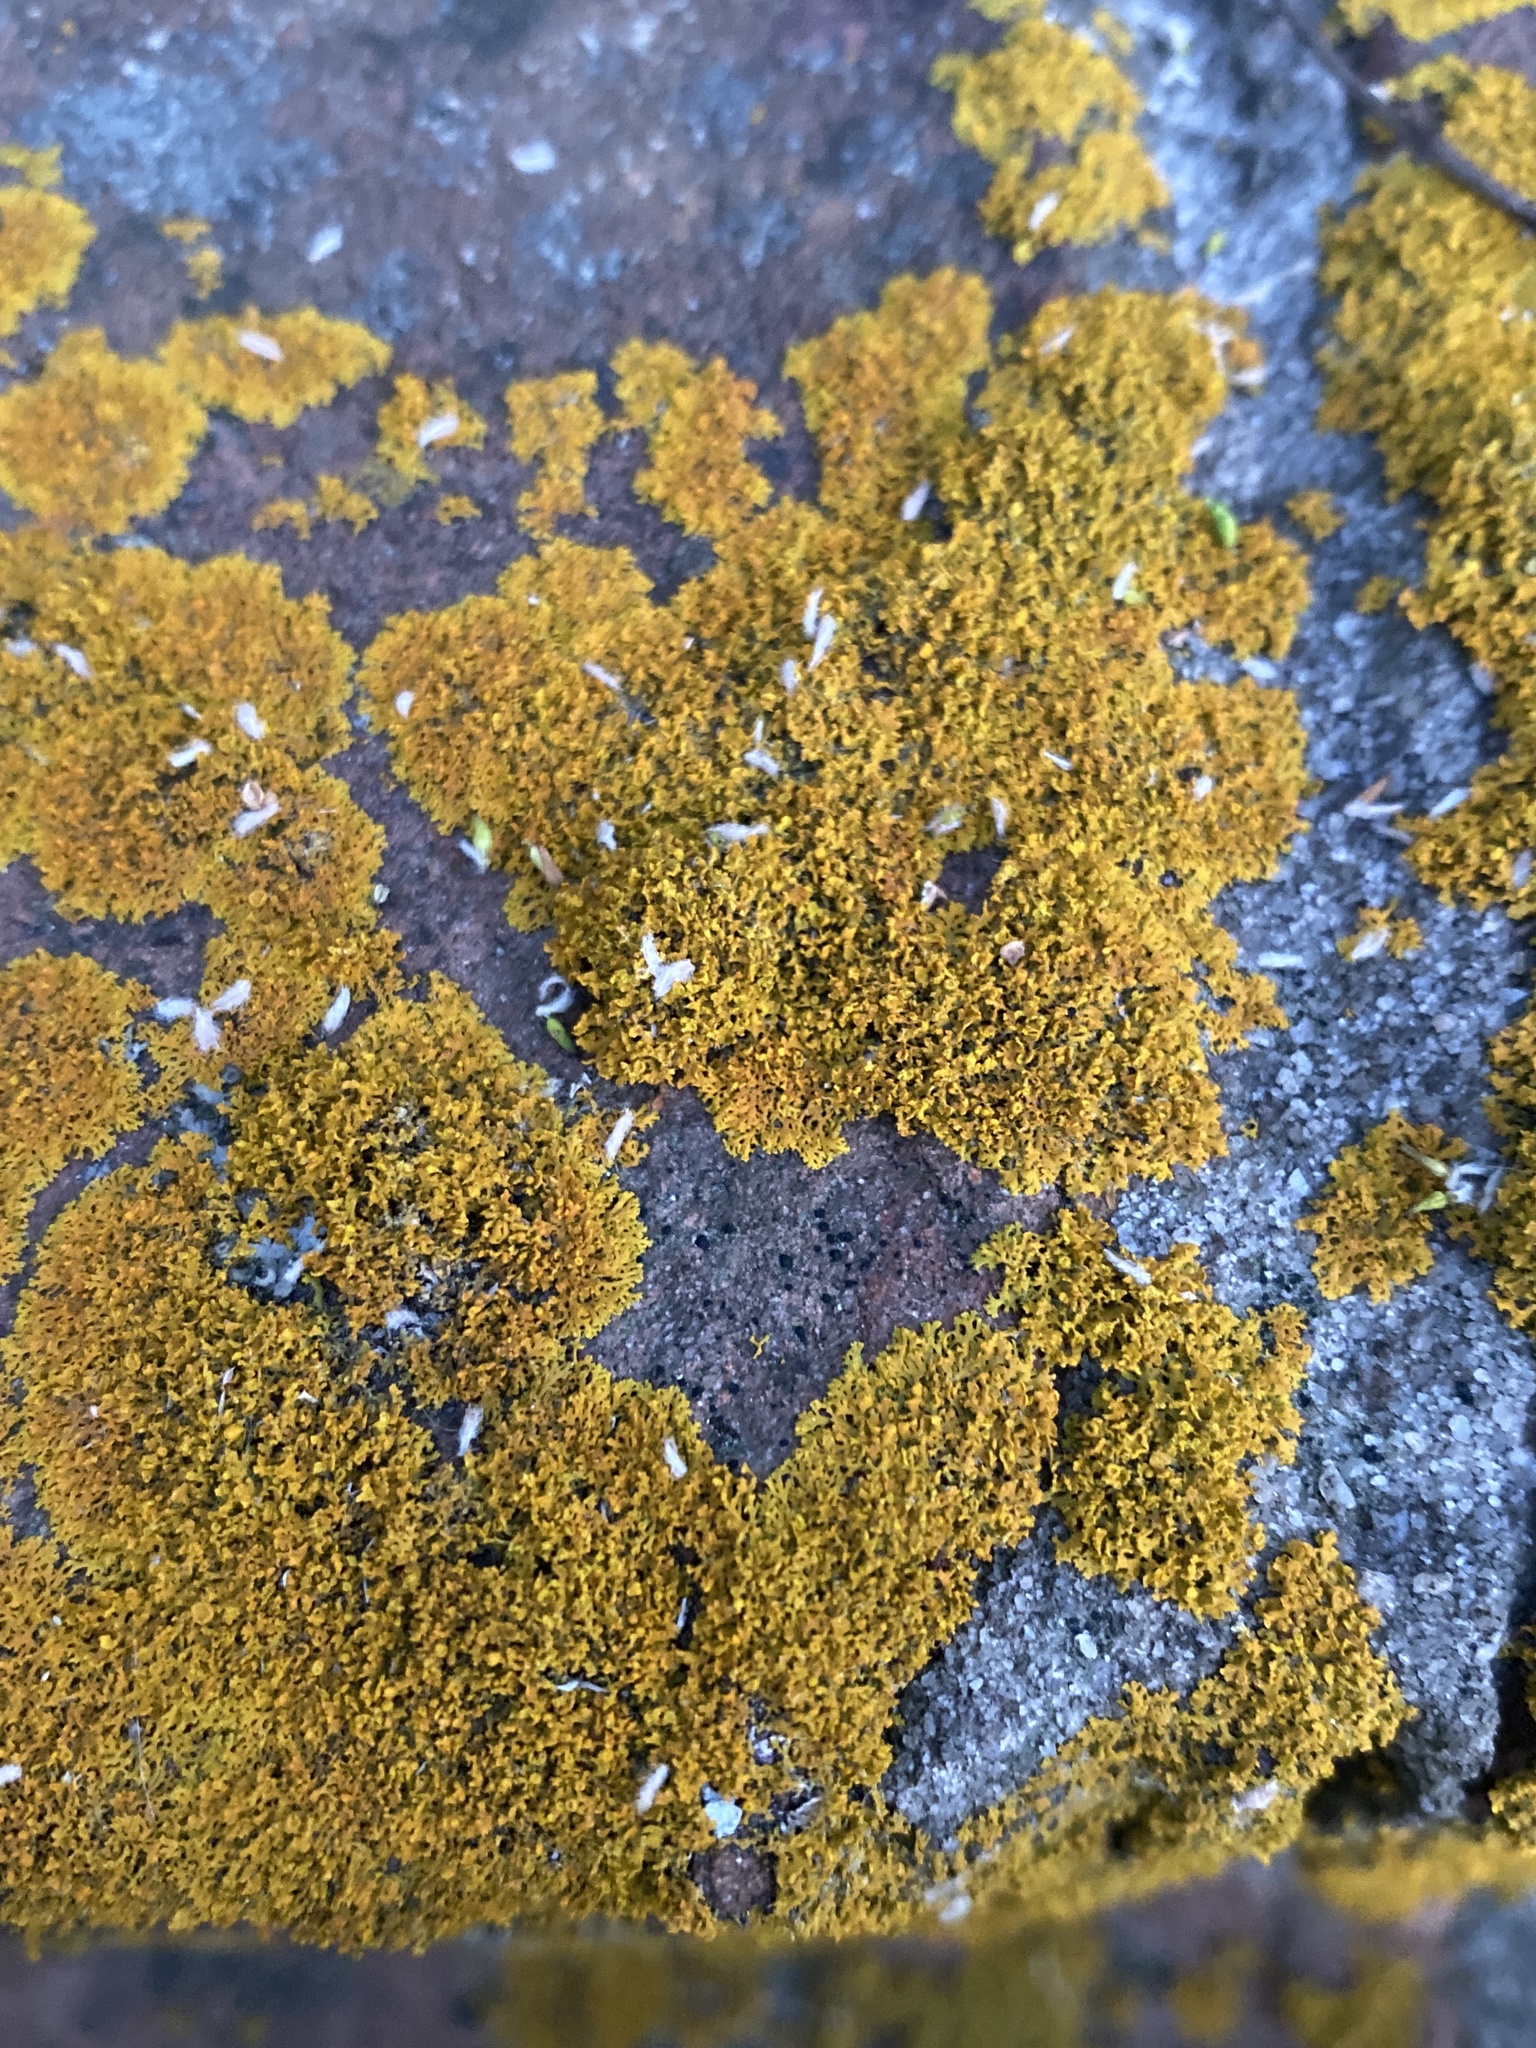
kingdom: Fungi
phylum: Ascomycota
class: Lecanoromycetes
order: Teloschistales
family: Teloschistaceae
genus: Gallowayella
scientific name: Gallowayella weberi
